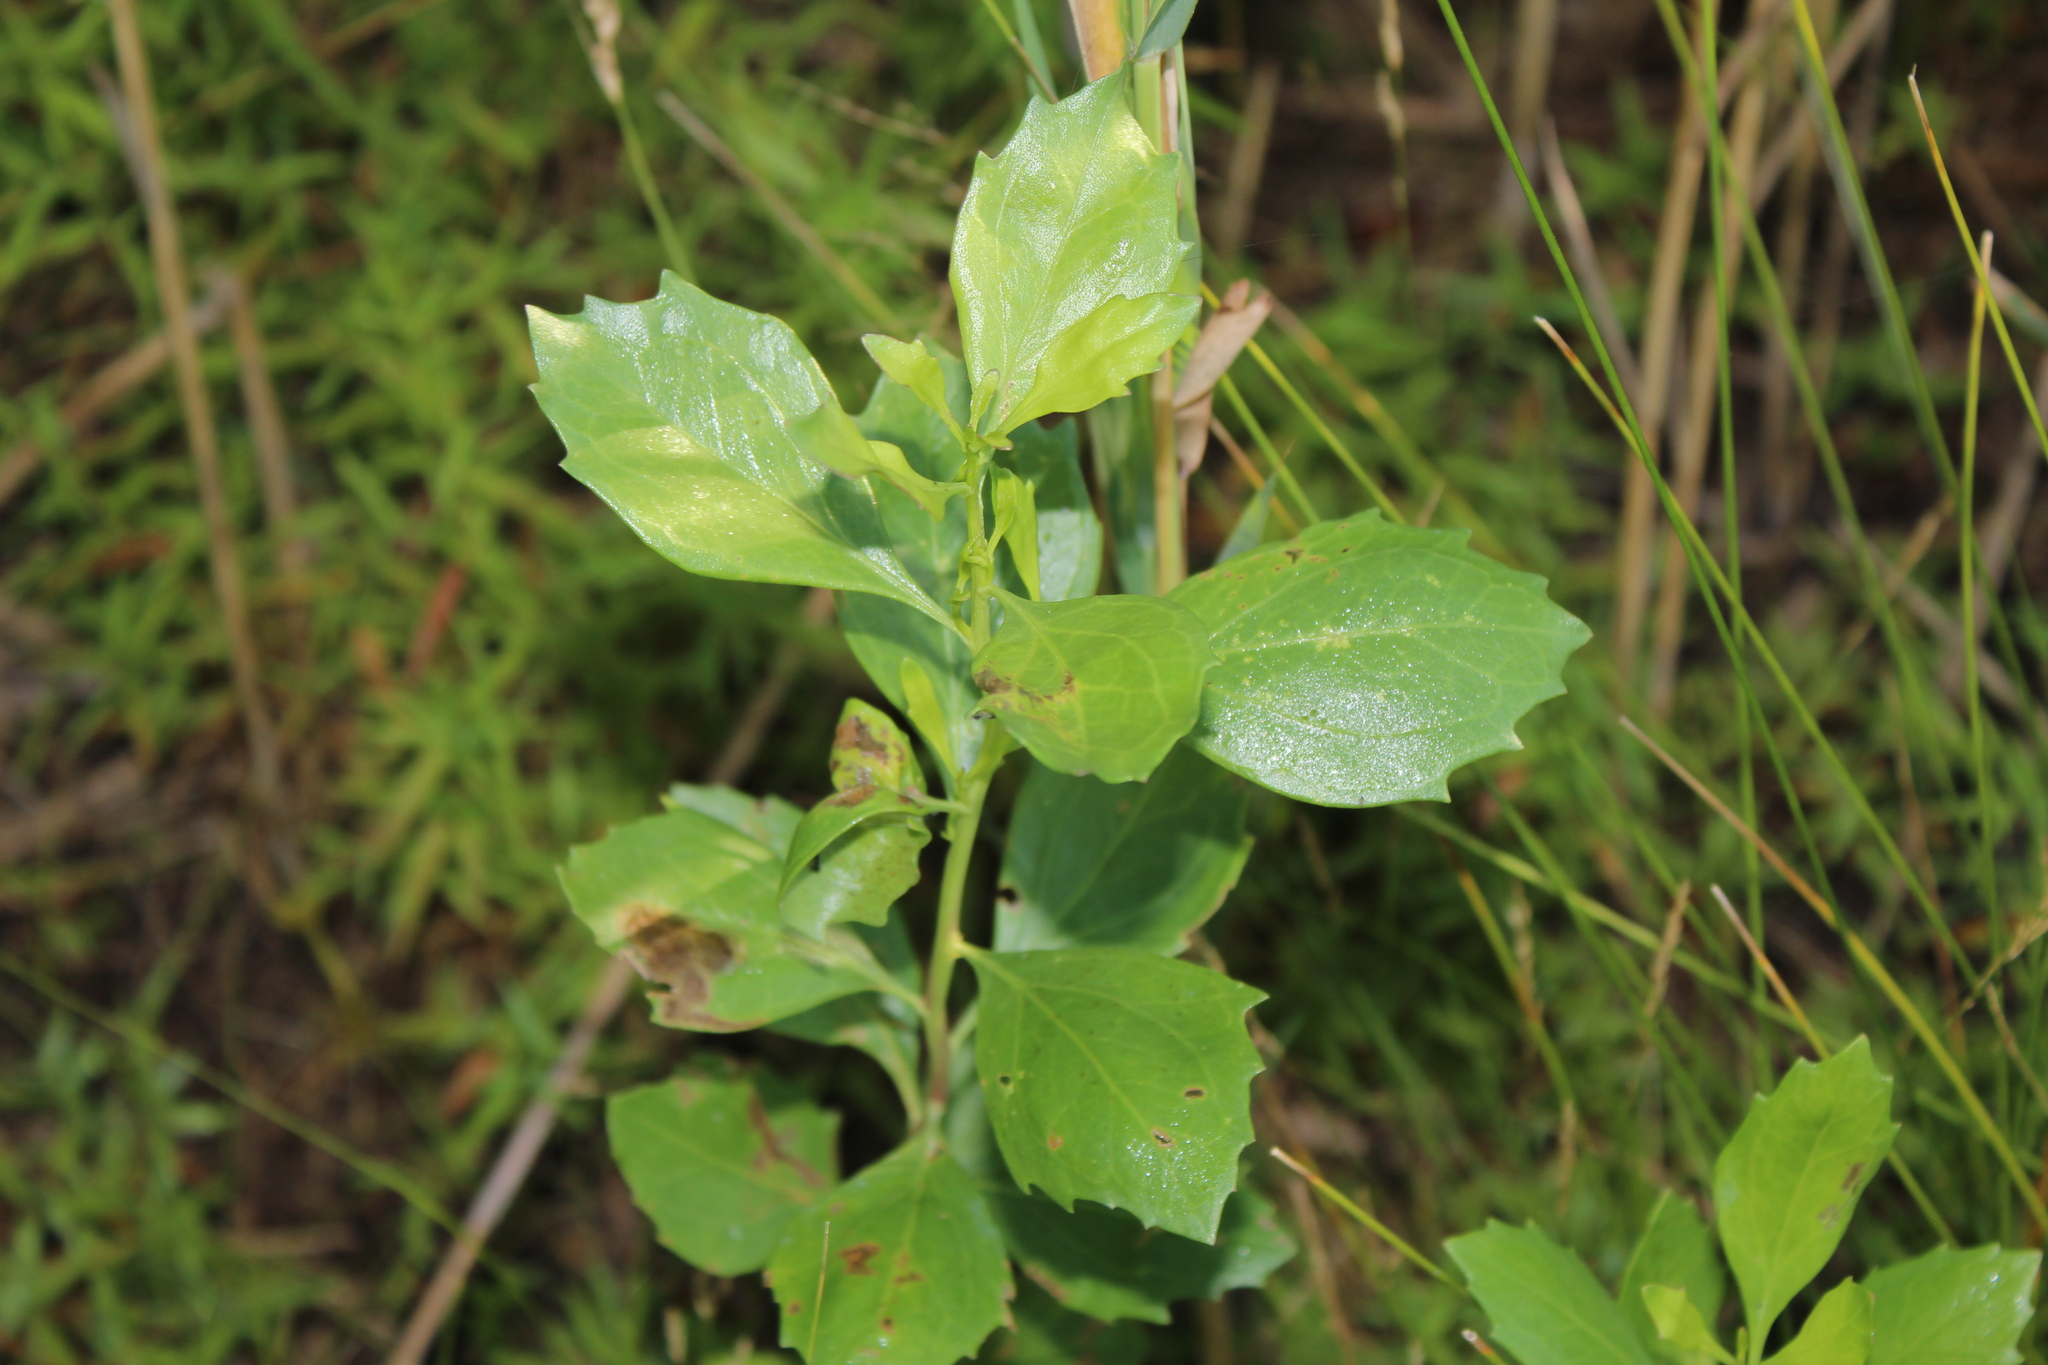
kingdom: Animalia
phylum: Arthropoda
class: Insecta
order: Diptera
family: Agromyzidae
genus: Nemorimyza
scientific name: Nemorimyza posticata
